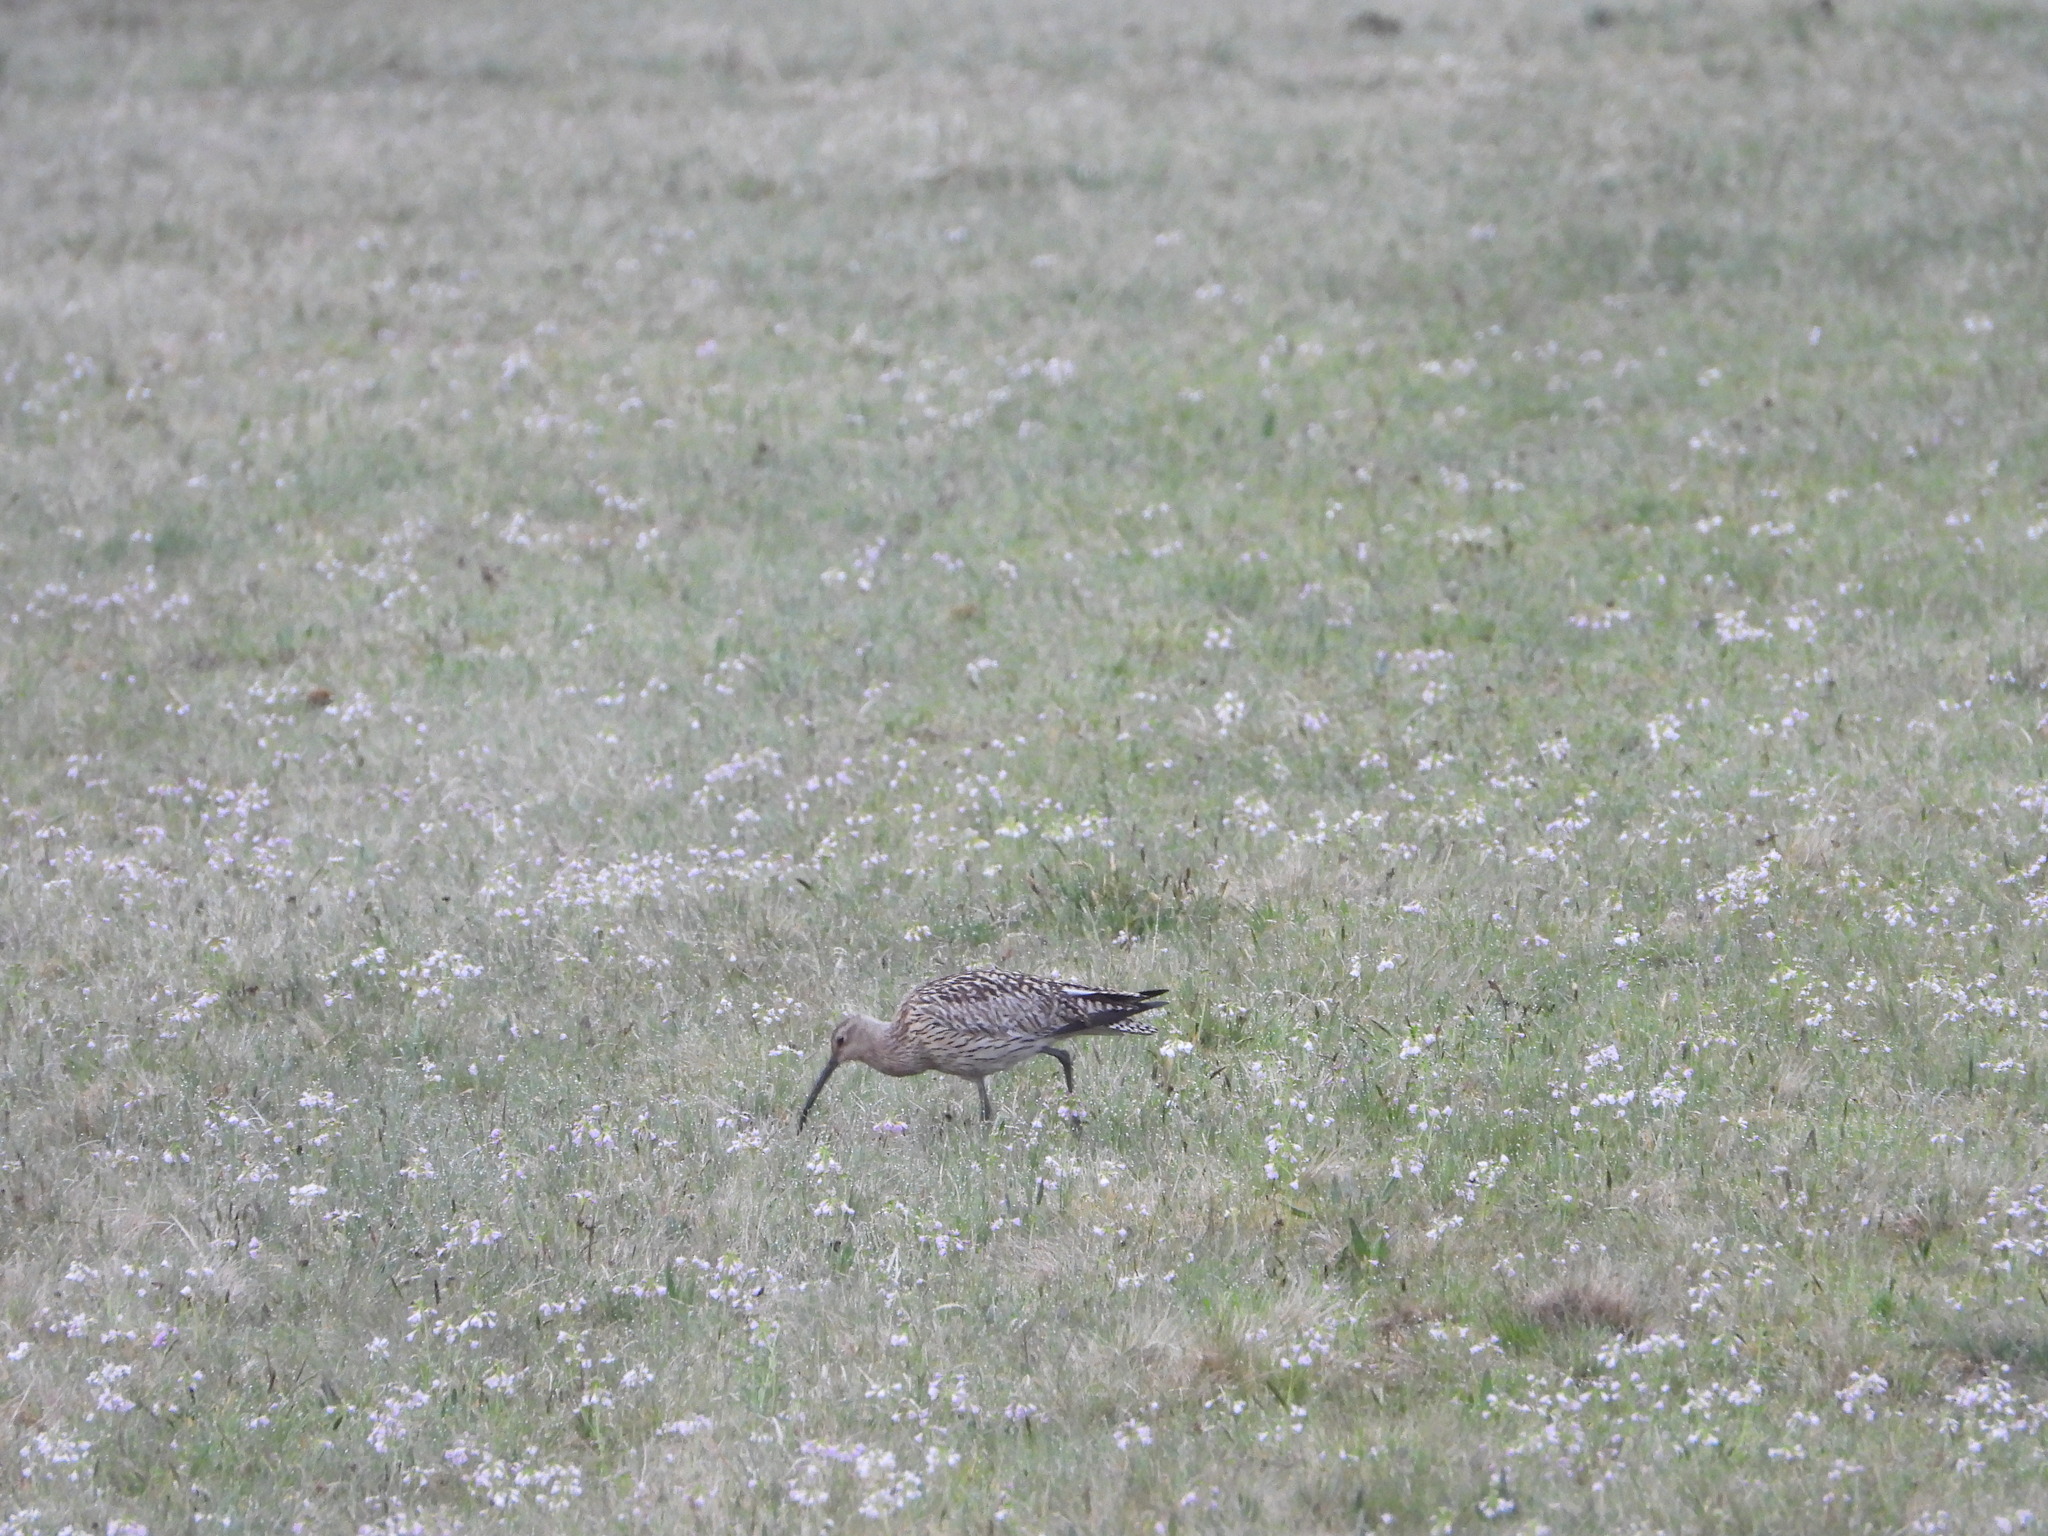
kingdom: Animalia
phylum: Chordata
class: Aves
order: Charadriiformes
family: Scolopacidae
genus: Numenius
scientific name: Numenius arquata
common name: Eurasian curlew
